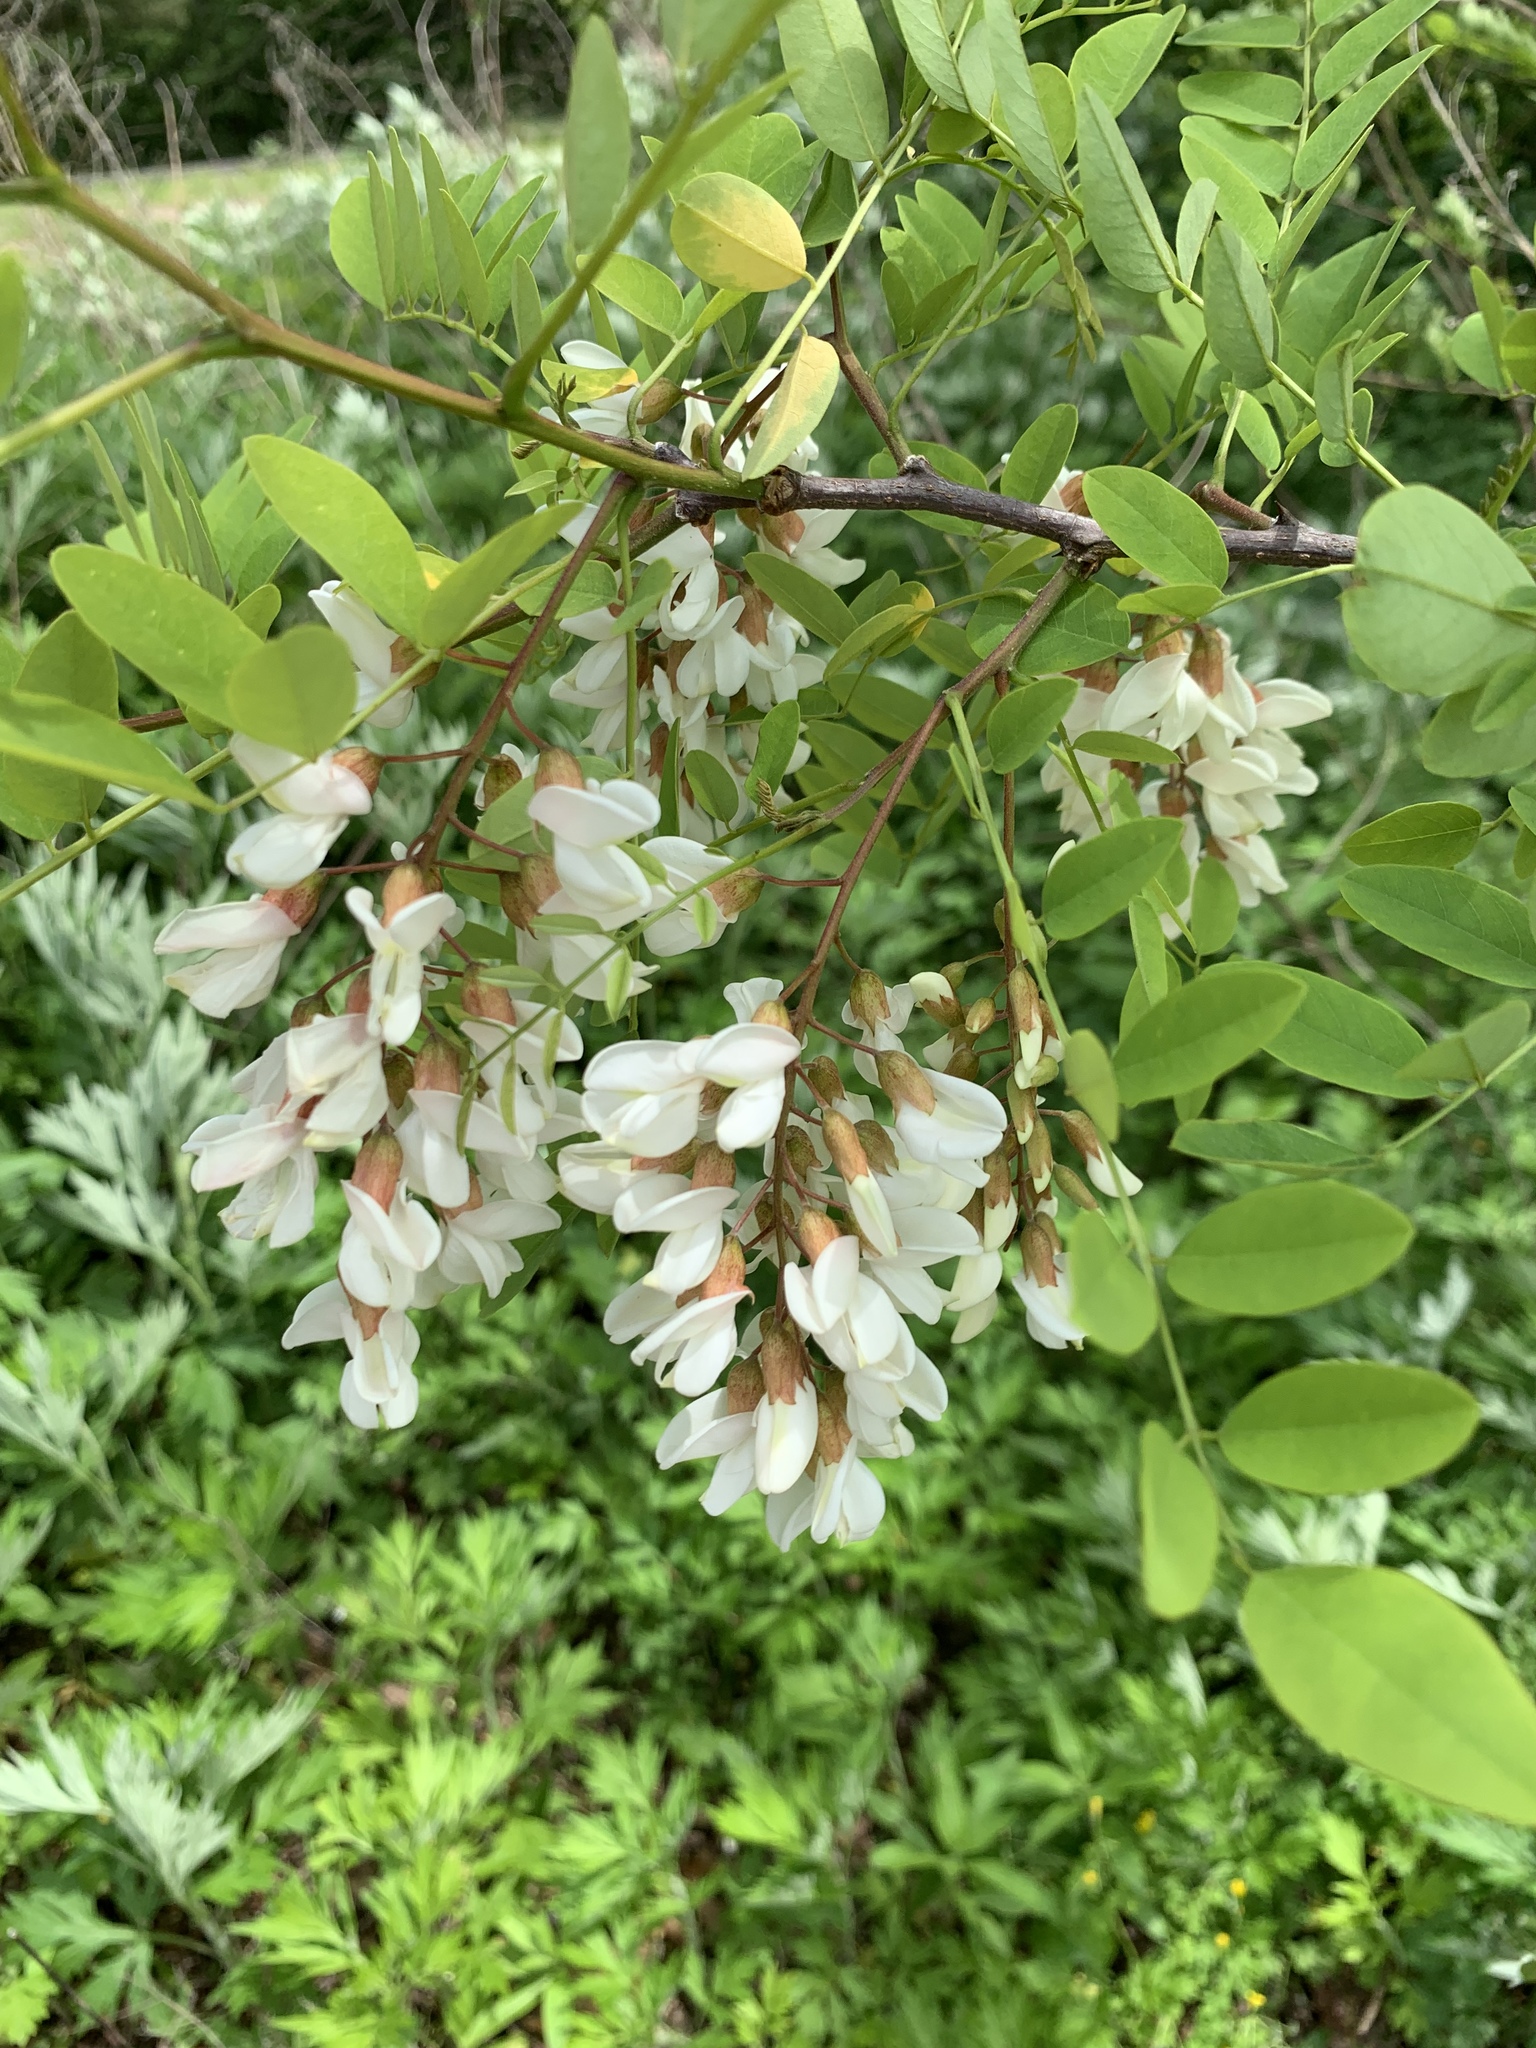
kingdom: Plantae
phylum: Tracheophyta
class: Magnoliopsida
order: Fabales
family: Fabaceae
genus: Robinia
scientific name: Robinia pseudoacacia
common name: Black locust
